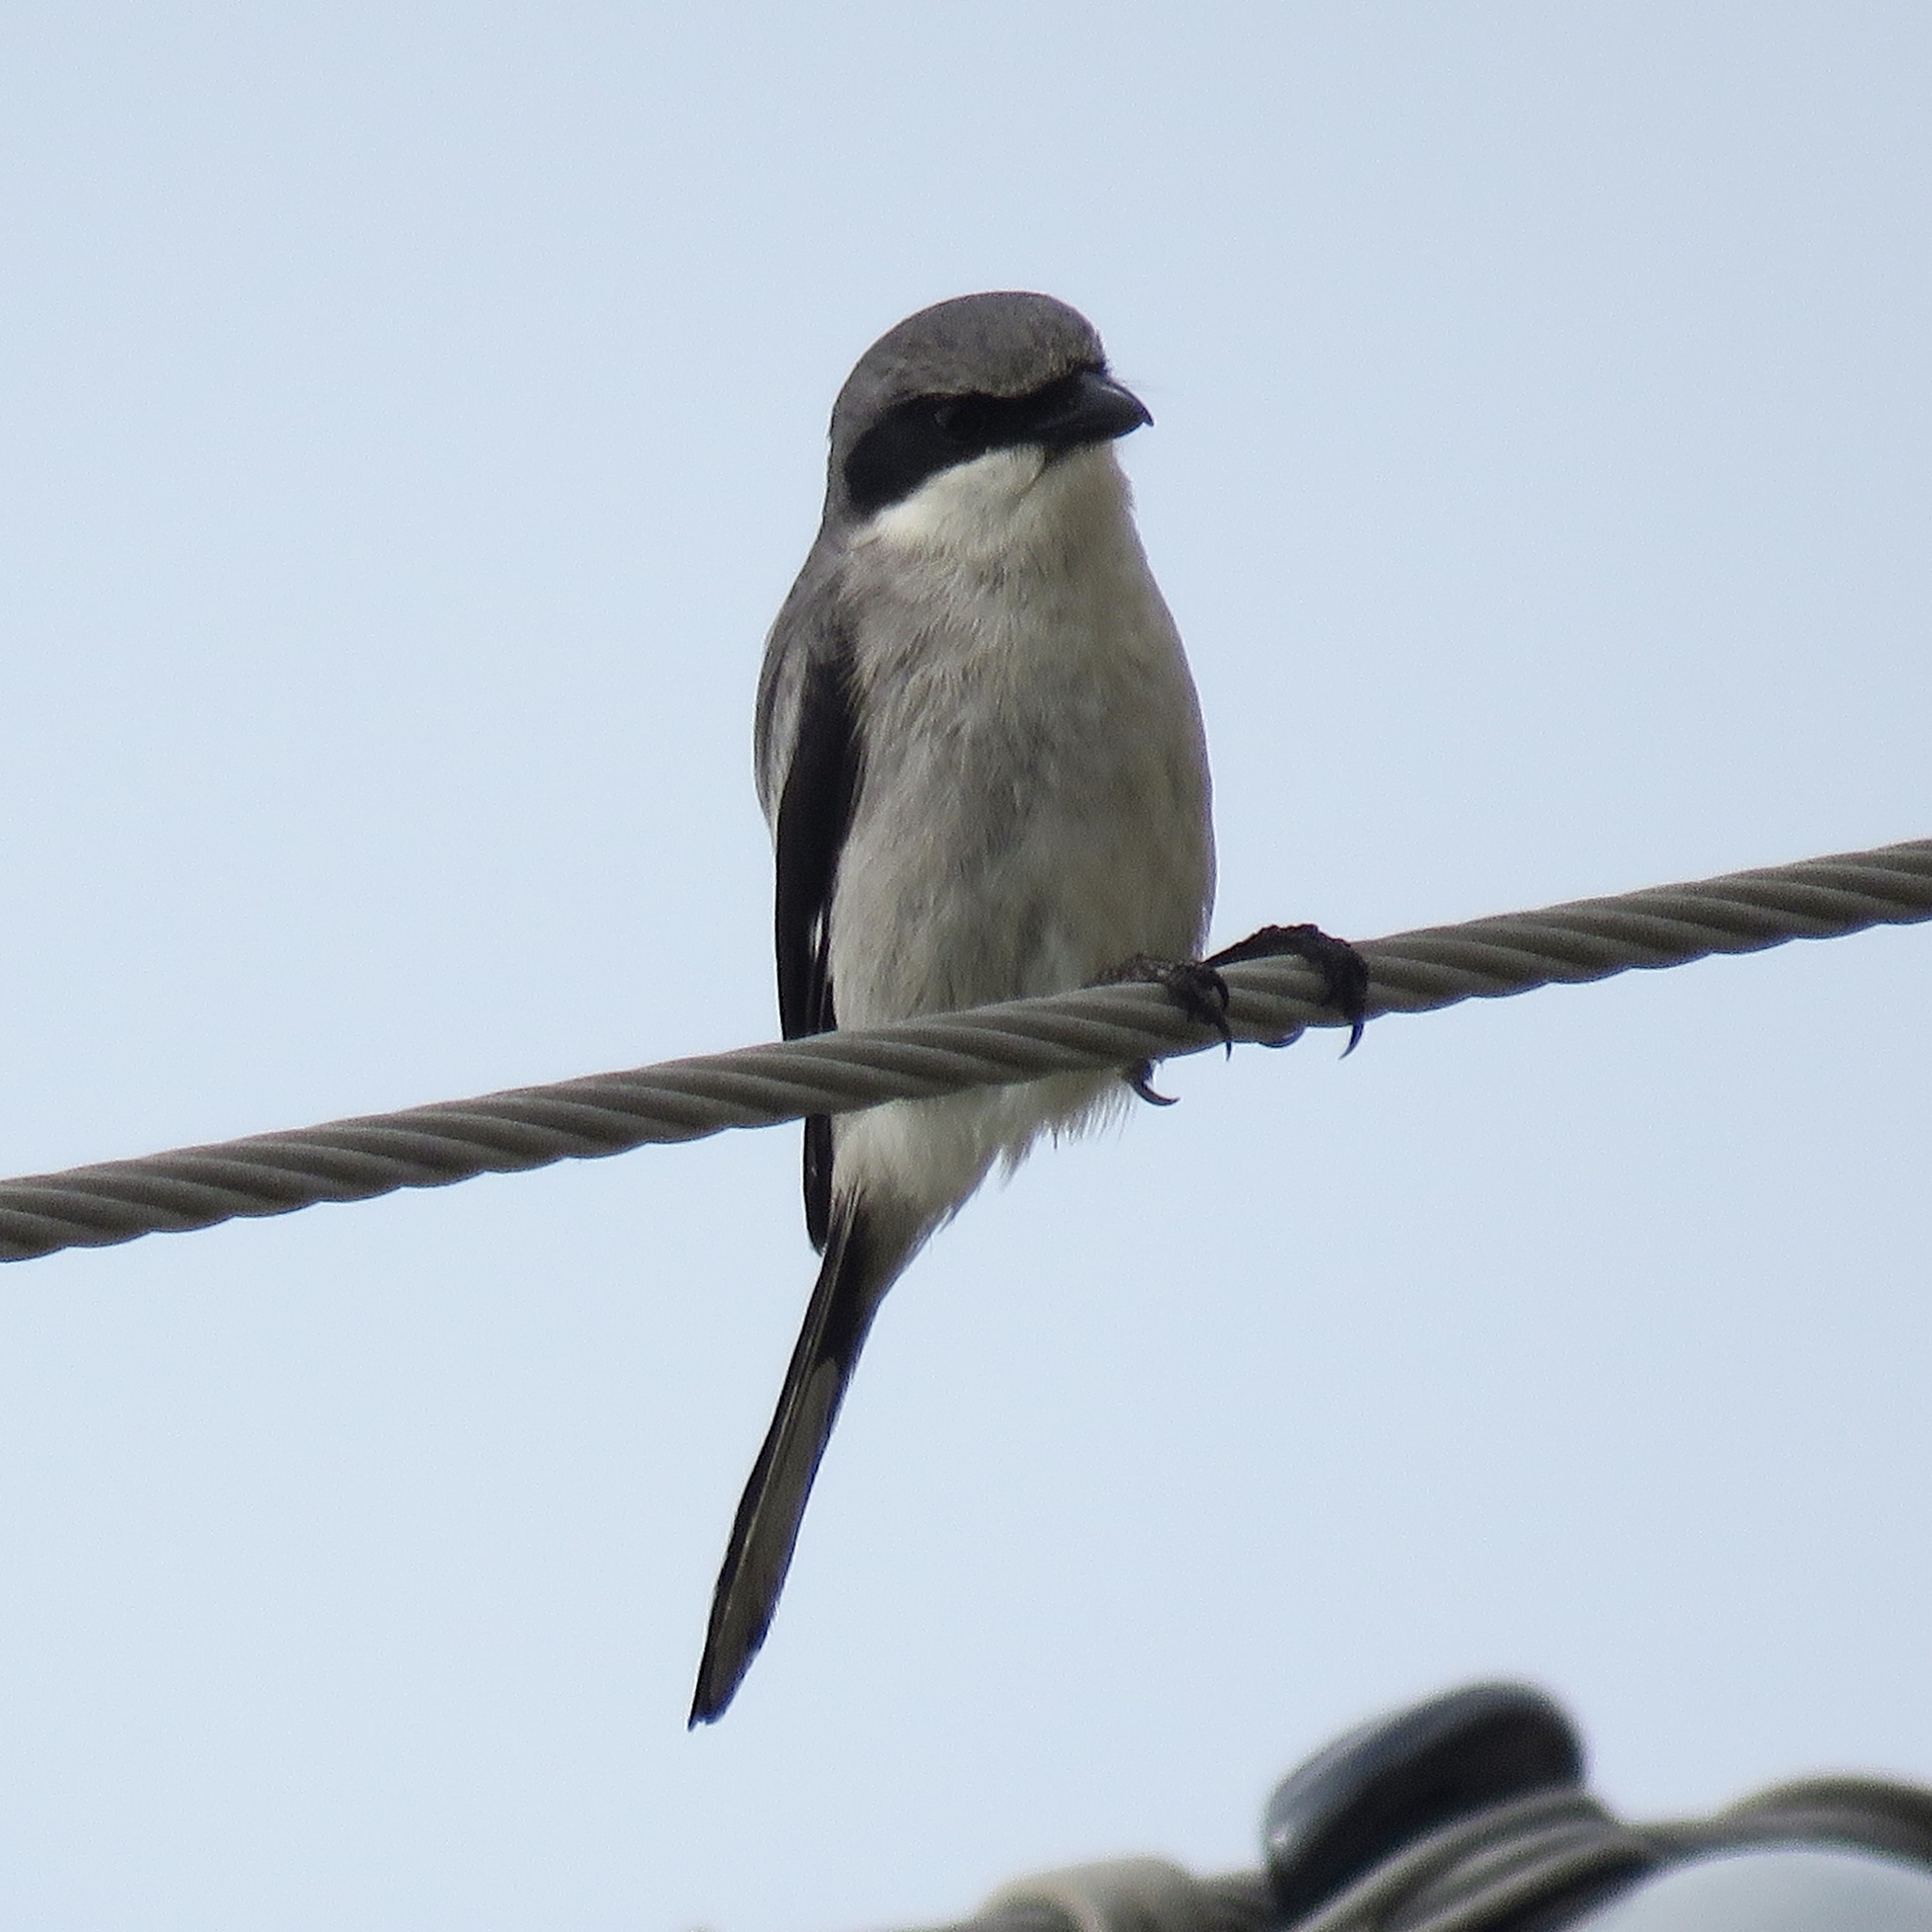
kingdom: Animalia
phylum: Chordata
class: Aves
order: Passeriformes
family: Laniidae
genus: Lanius
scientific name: Lanius ludovicianus
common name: Loggerhead shrike
